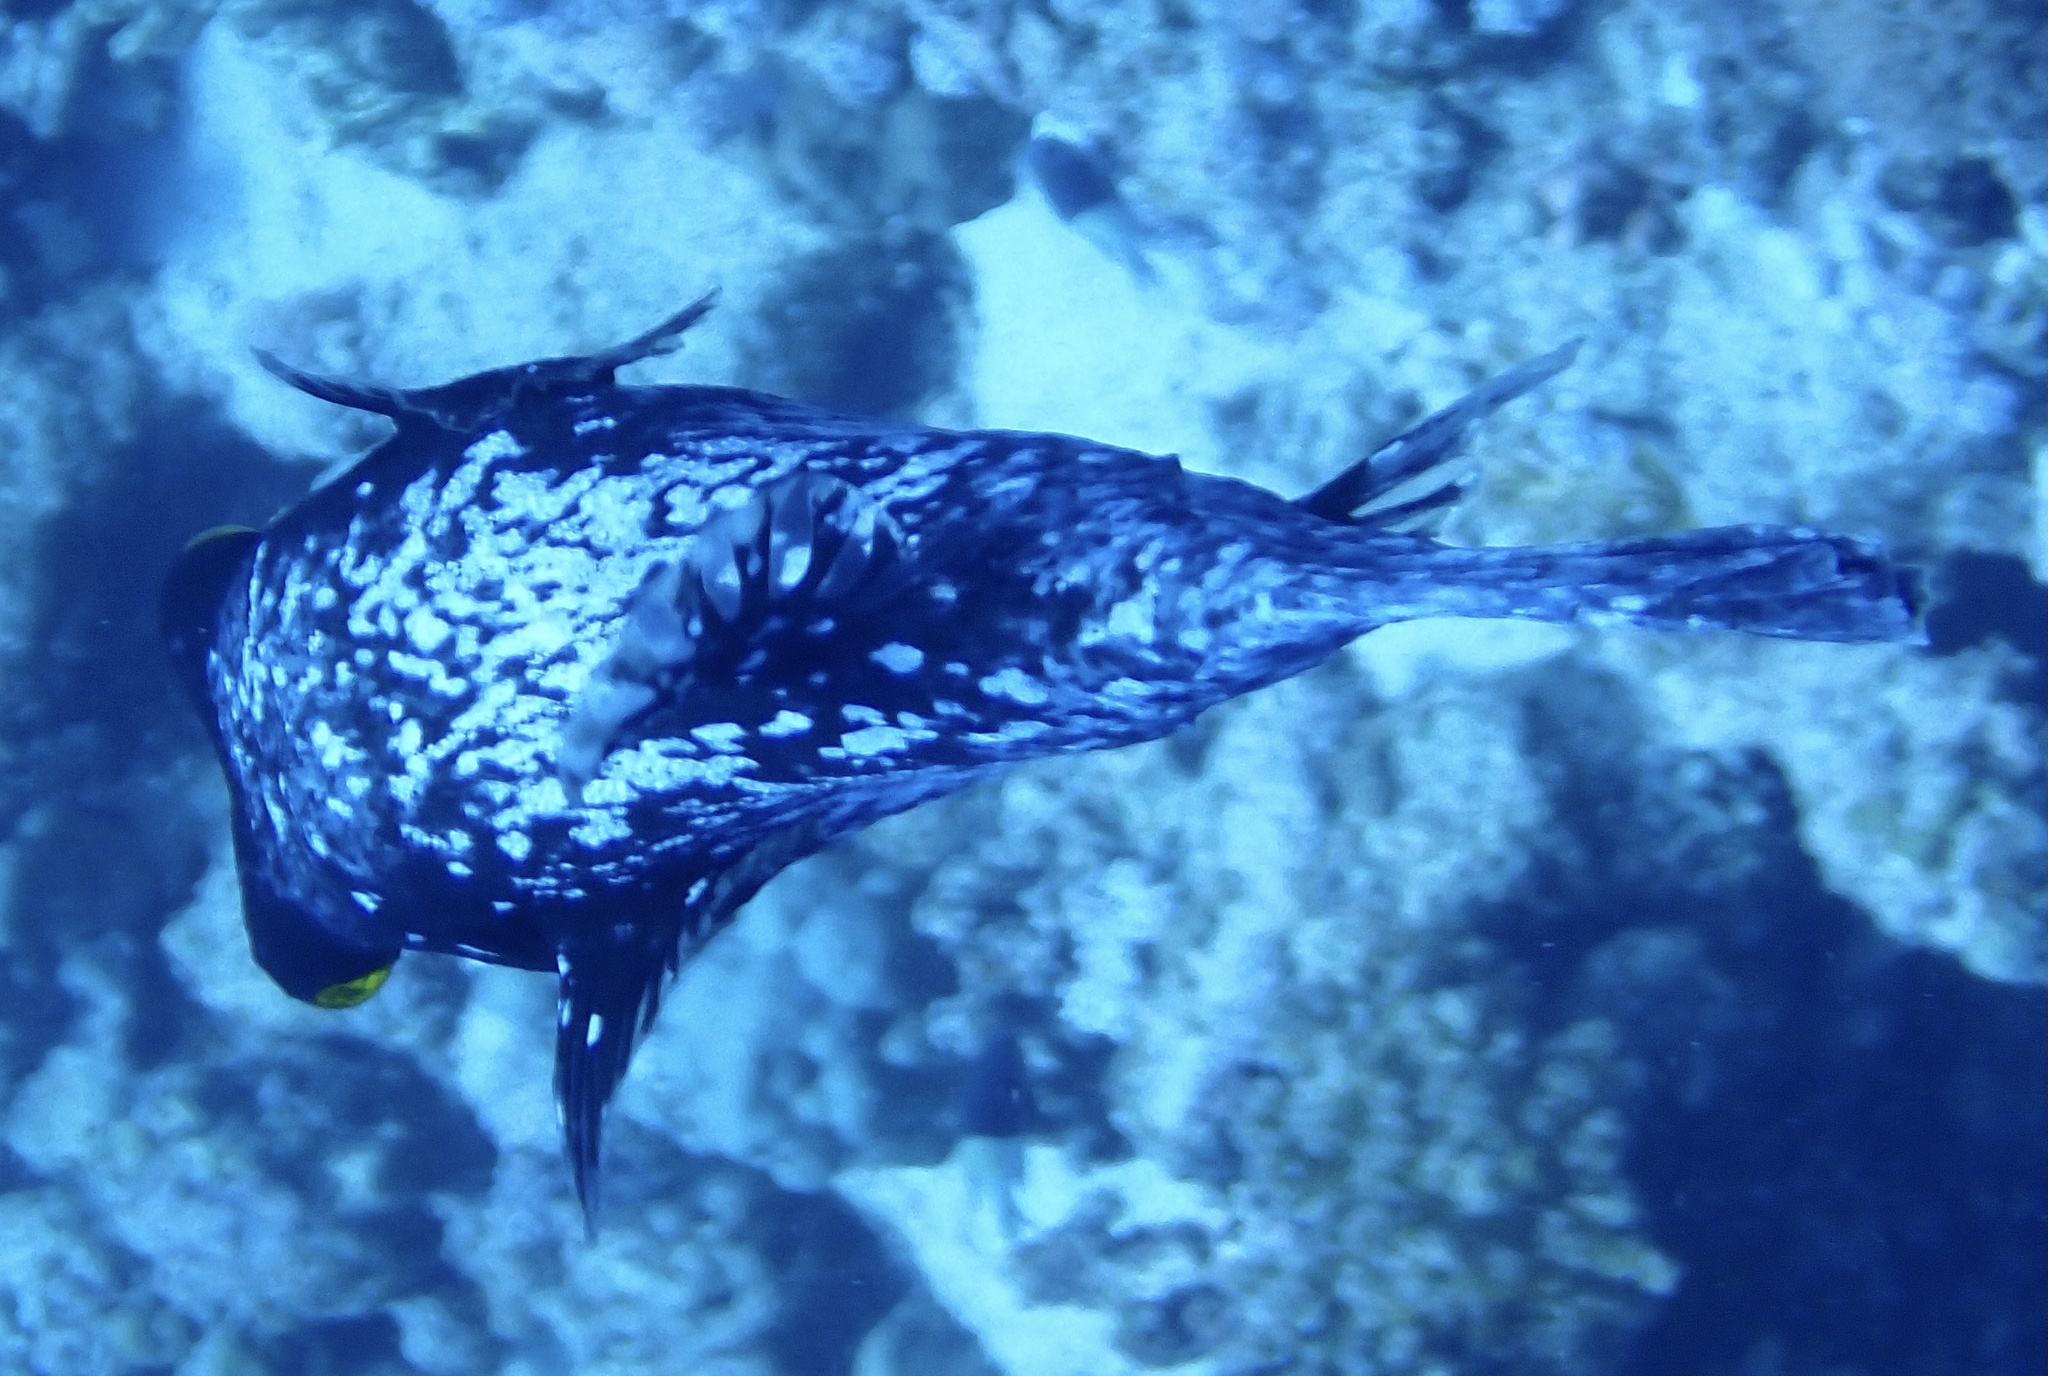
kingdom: Animalia
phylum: Chordata
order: Tetraodontiformes
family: Tetraodontidae
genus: Arothron
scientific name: Arothron diadematus
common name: Masked puffer
